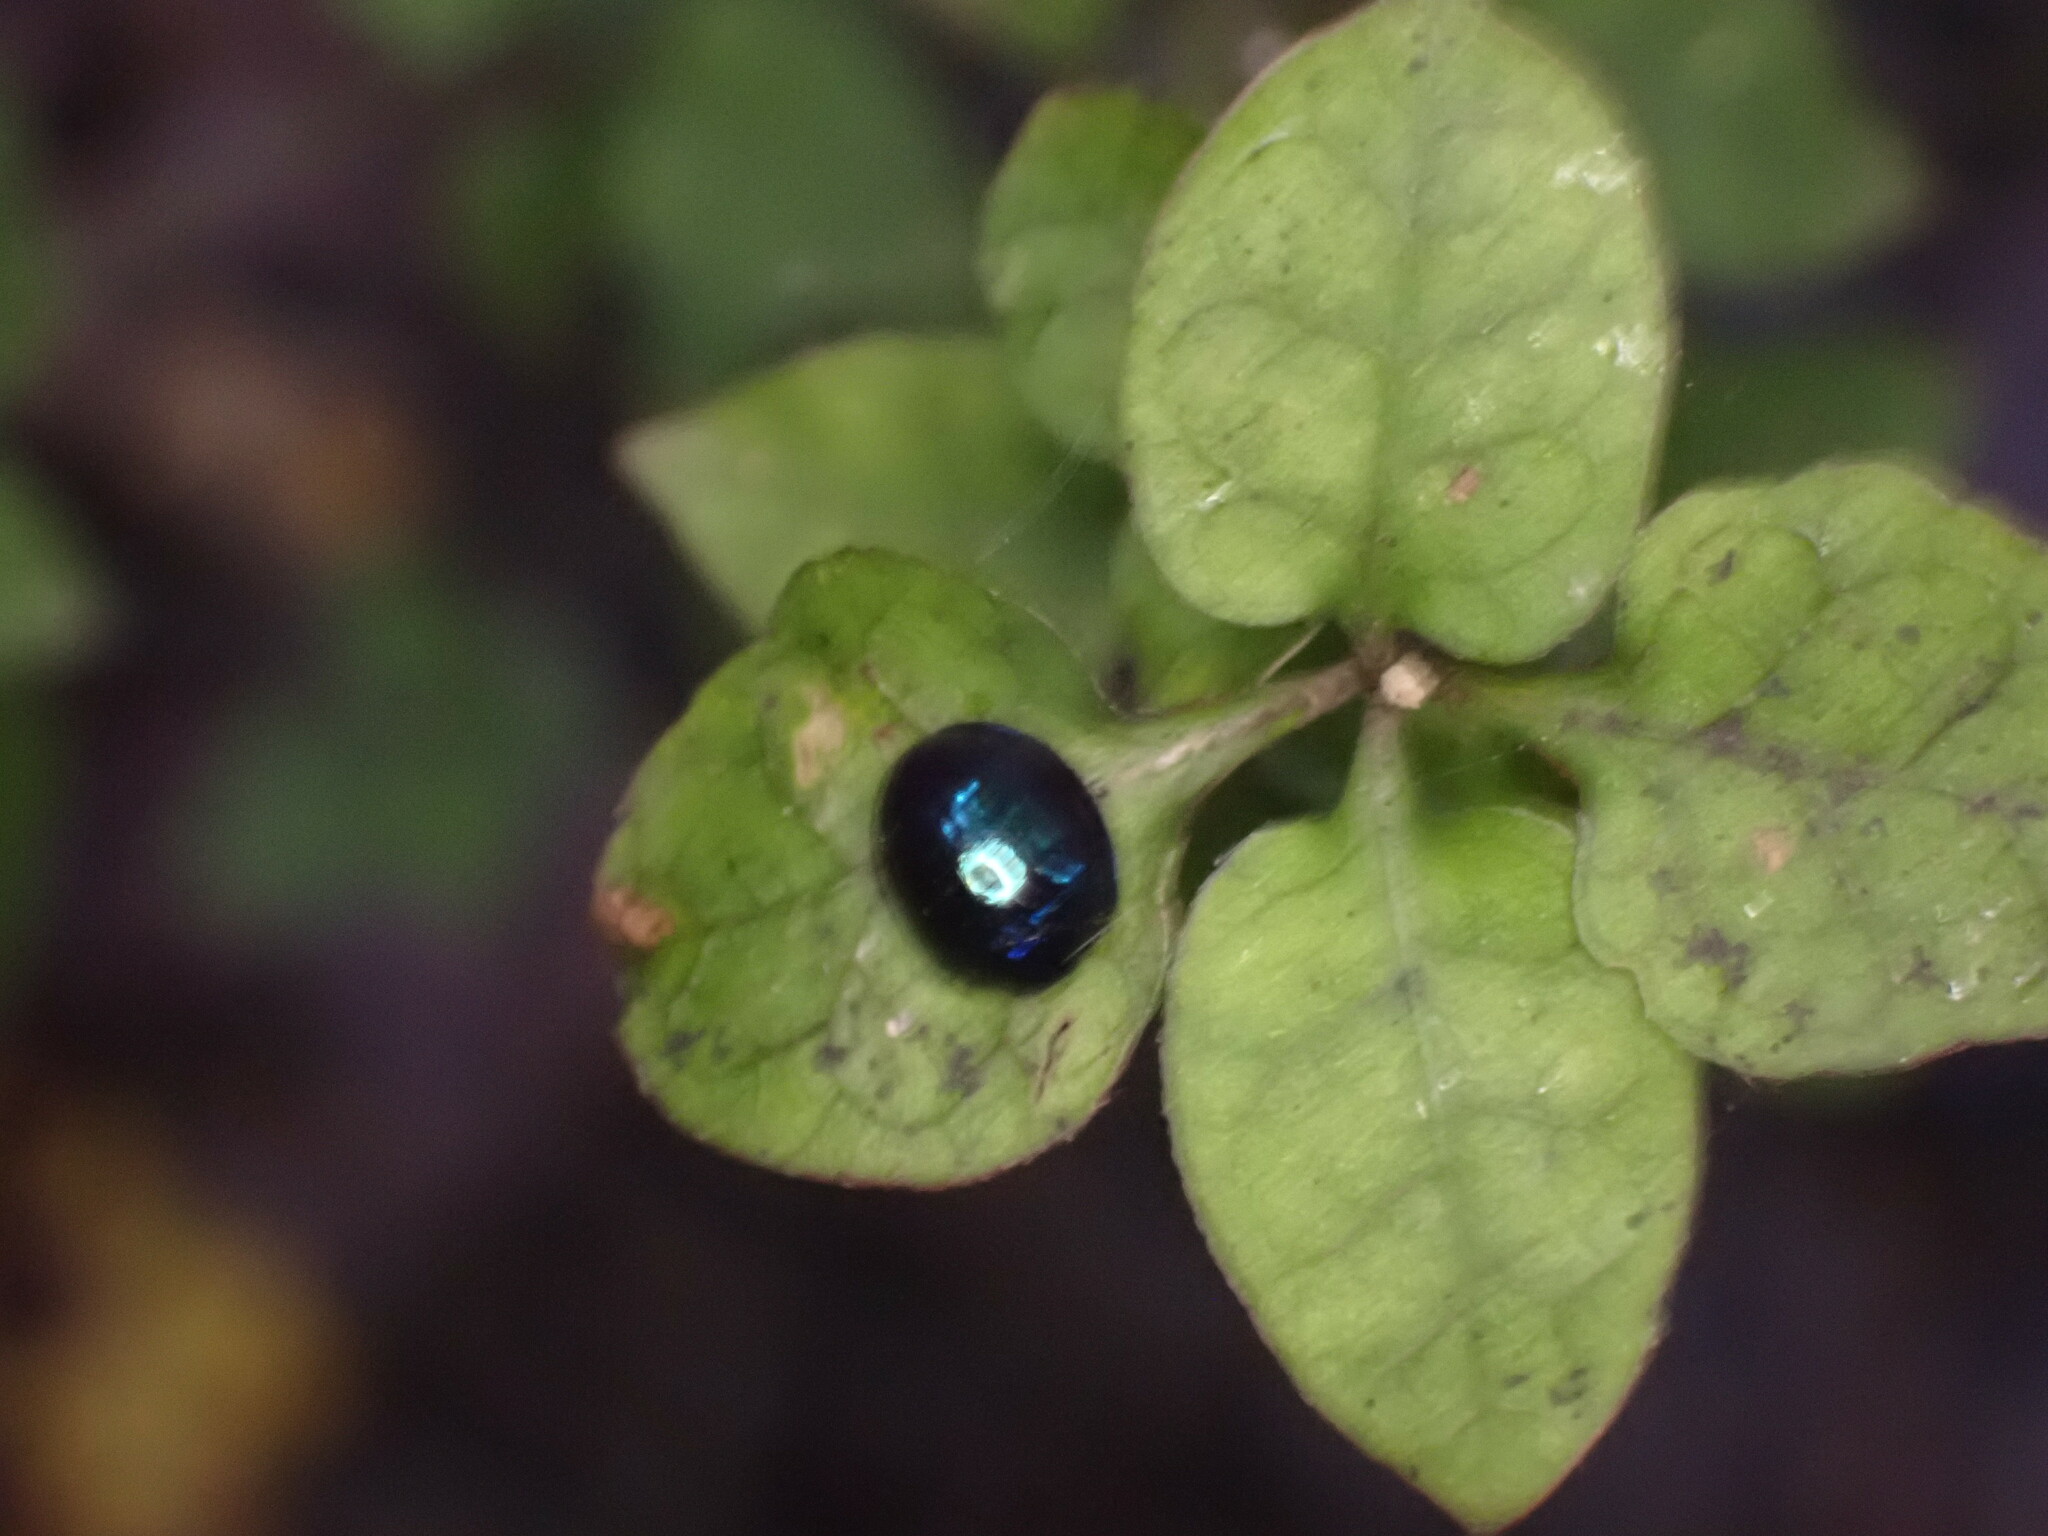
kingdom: Animalia
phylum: Arthropoda
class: Insecta
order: Coleoptera
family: Coccinellidae
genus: Halmus
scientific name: Halmus chalybeus
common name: Steel blue ladybird beetle
